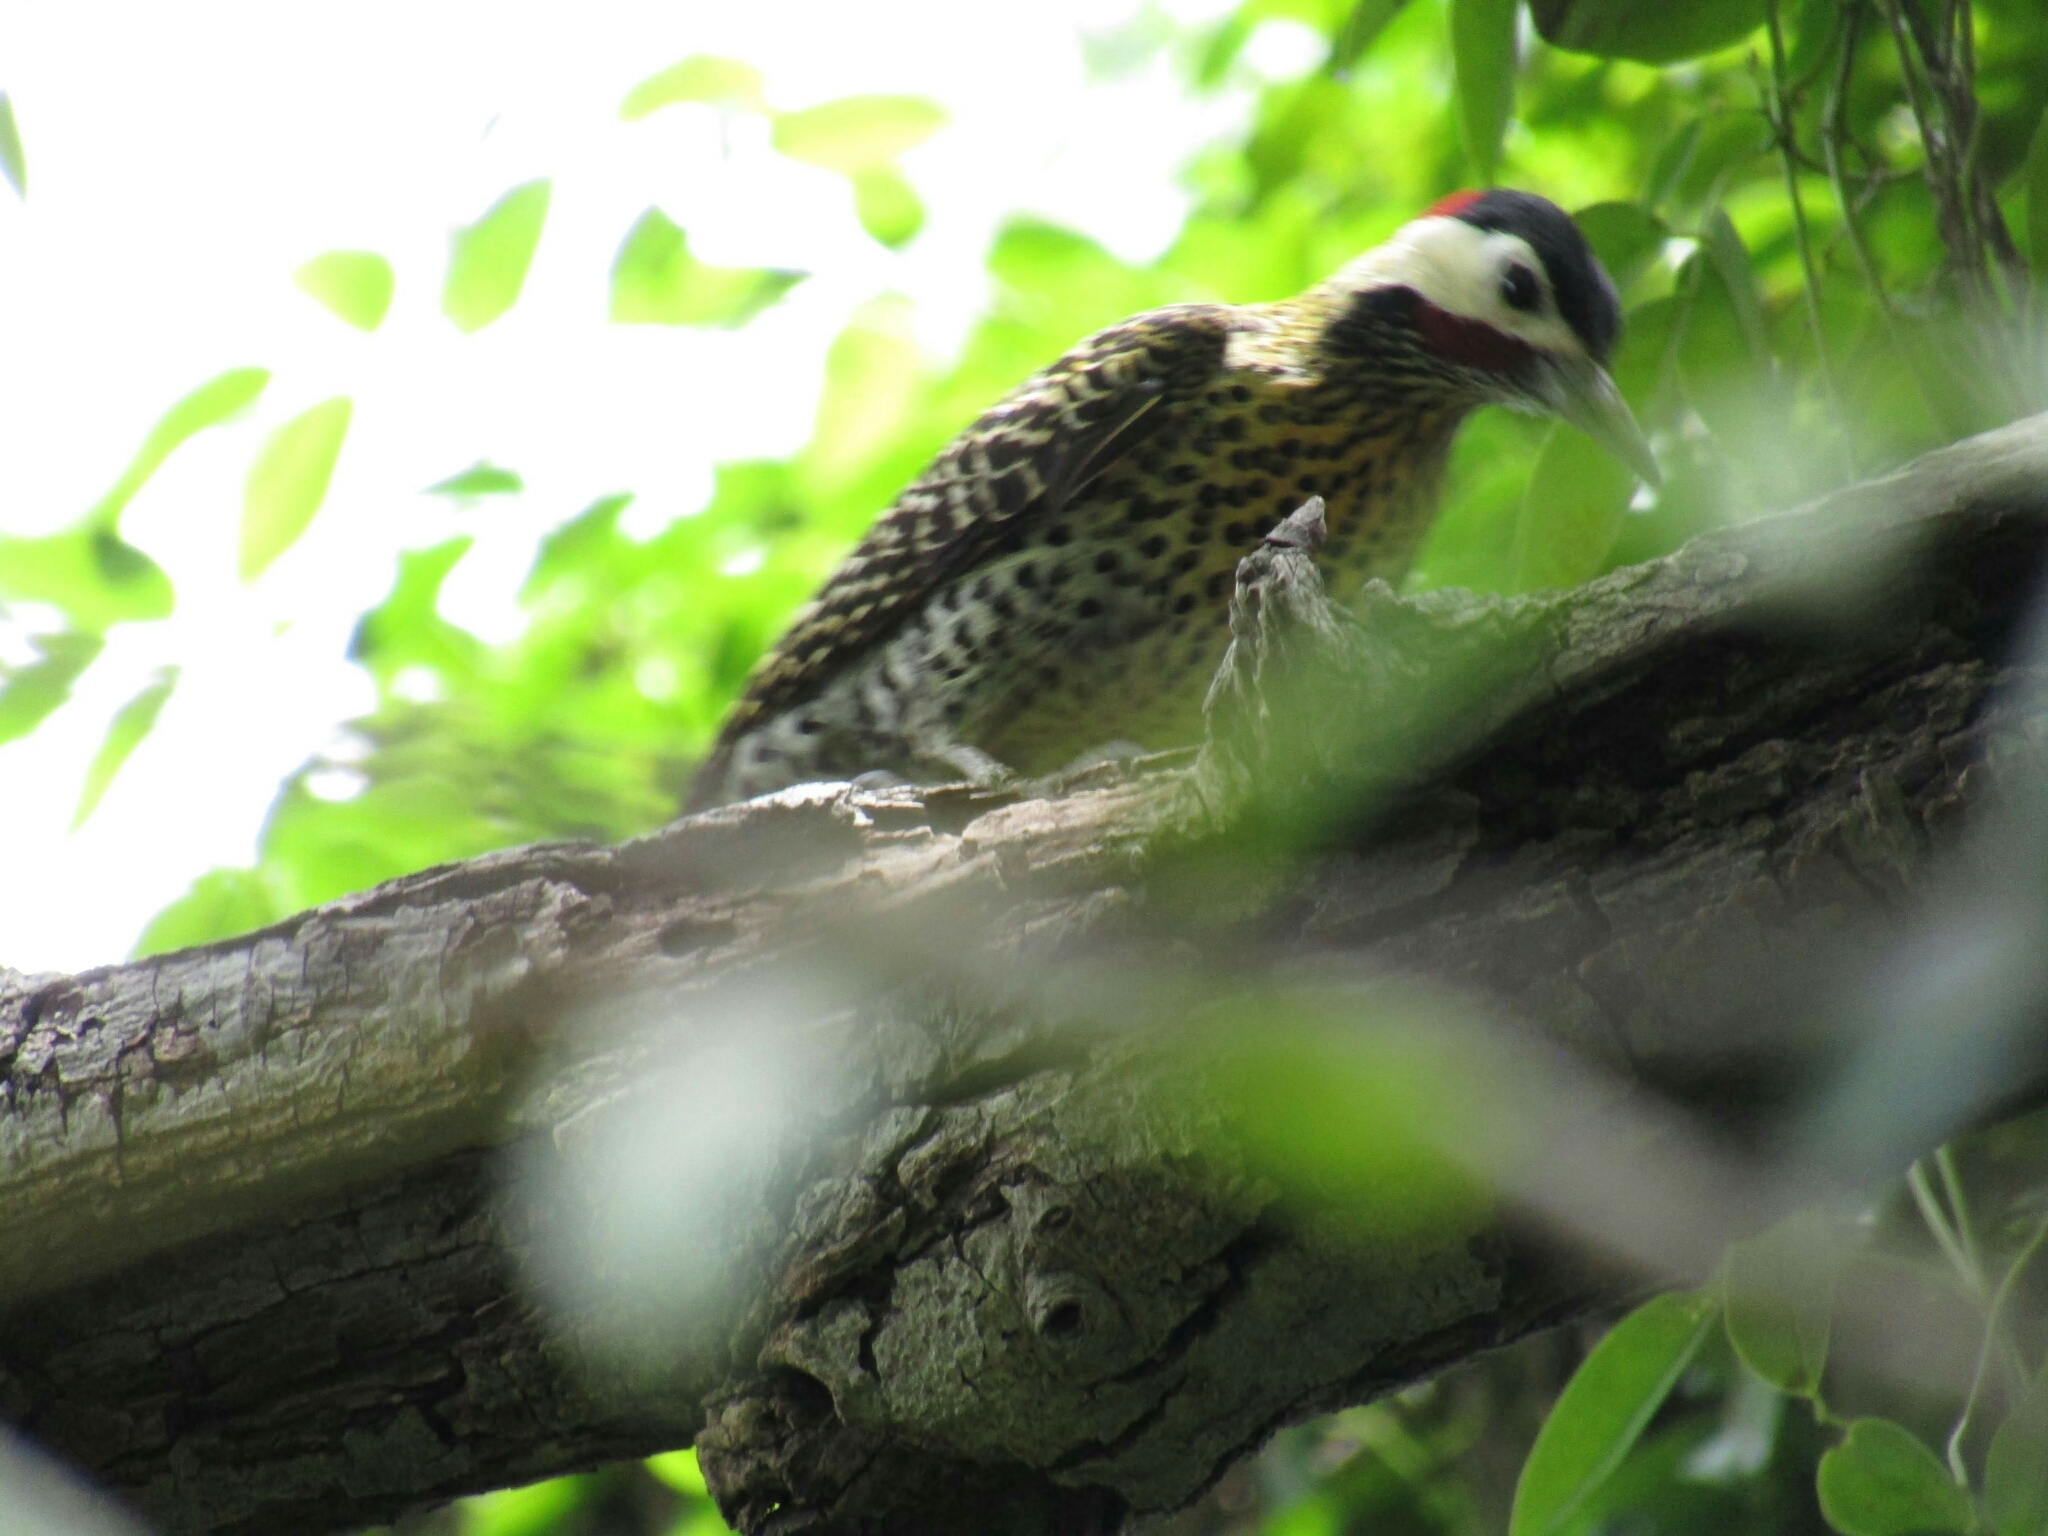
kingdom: Animalia
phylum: Chordata
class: Aves
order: Piciformes
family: Picidae
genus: Colaptes
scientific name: Colaptes melanochloros
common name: Green-barred woodpecker
